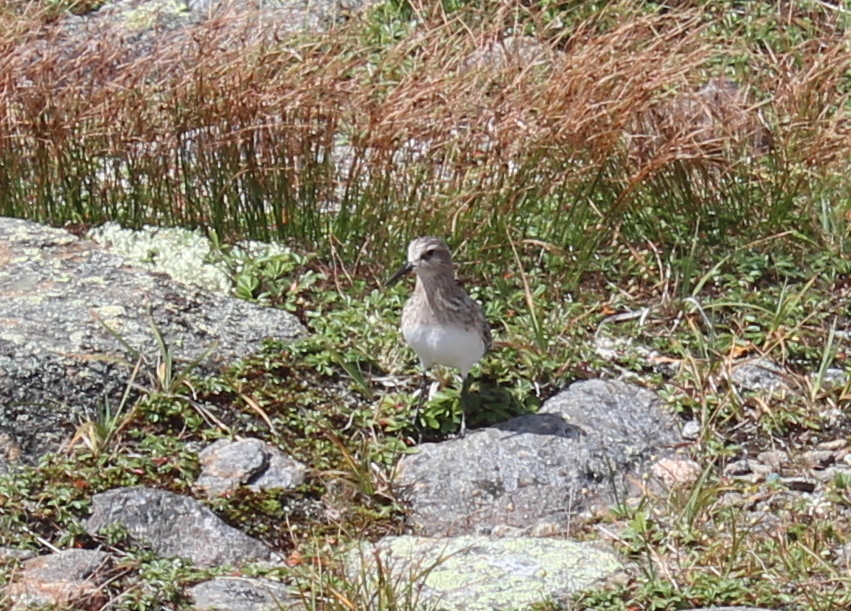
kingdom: Animalia
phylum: Chordata
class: Aves
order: Charadriiformes
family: Scolopacidae
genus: Calidris
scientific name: Calidris bairdii
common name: Baird's sandpiper
